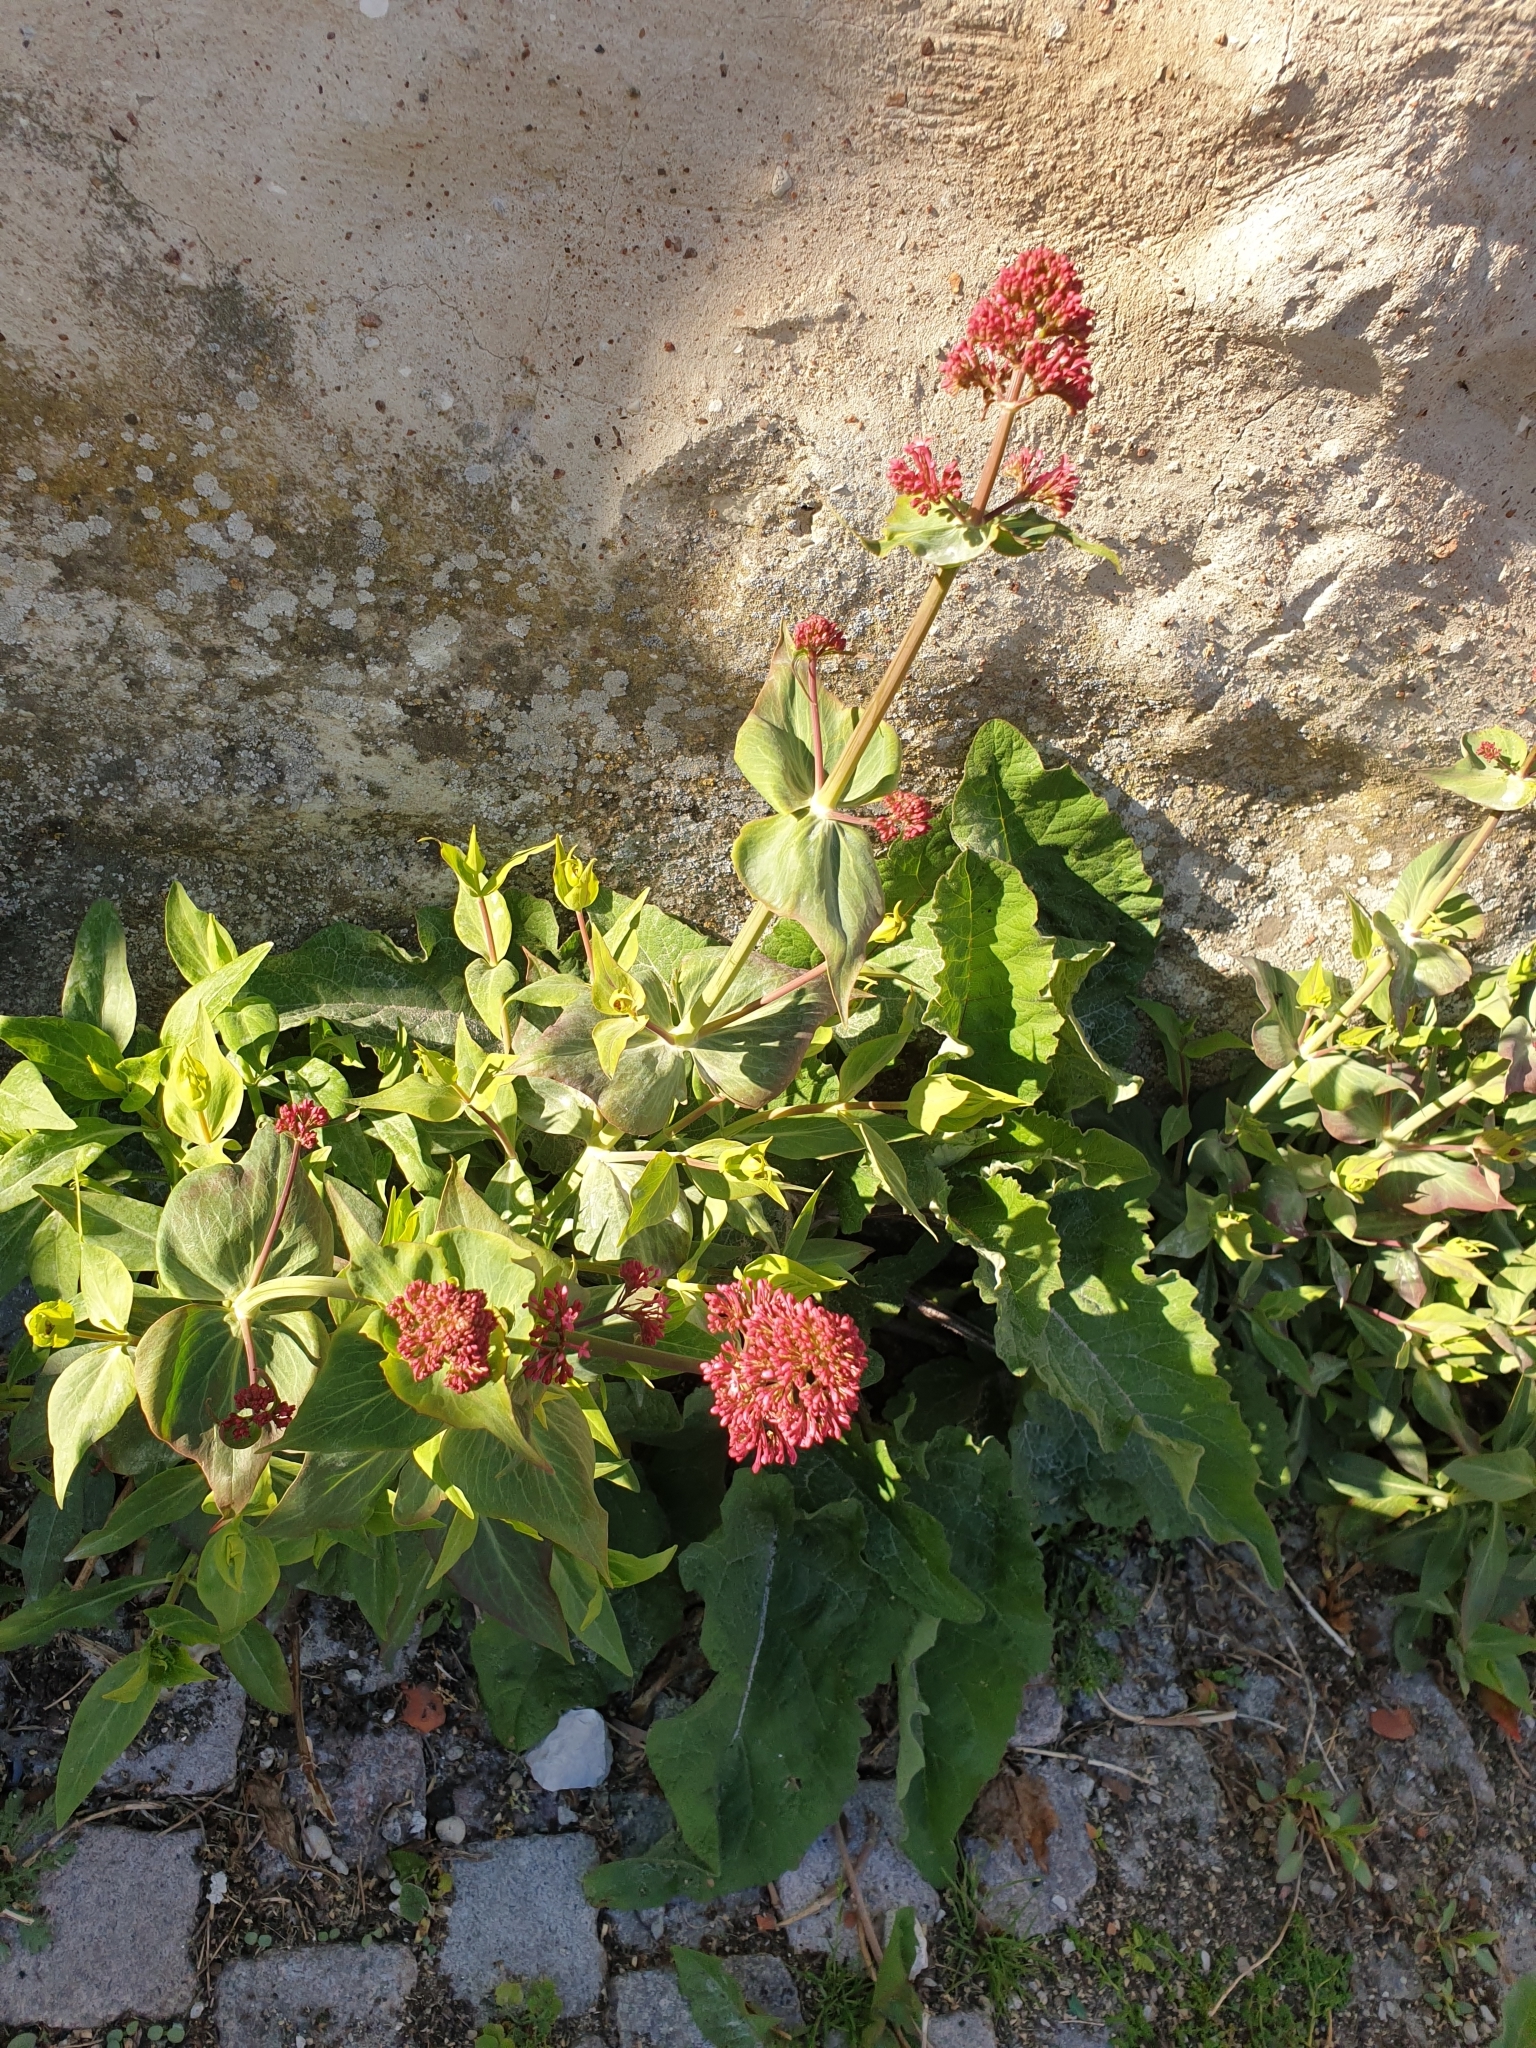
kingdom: Plantae
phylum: Tracheophyta
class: Magnoliopsida
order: Dipsacales
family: Caprifoliaceae
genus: Centranthus
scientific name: Centranthus ruber
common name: Red valerian
